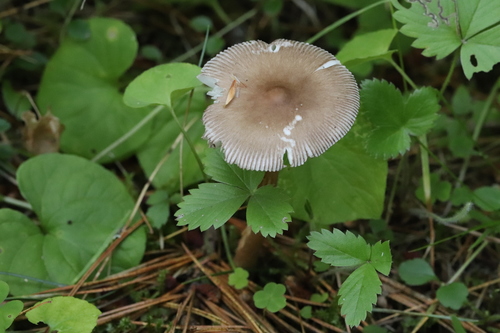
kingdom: Fungi
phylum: Basidiomycota
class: Agaricomycetes
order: Agaricales
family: Amanitaceae
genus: Amanita
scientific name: Amanita battarrae
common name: Banded amanita
